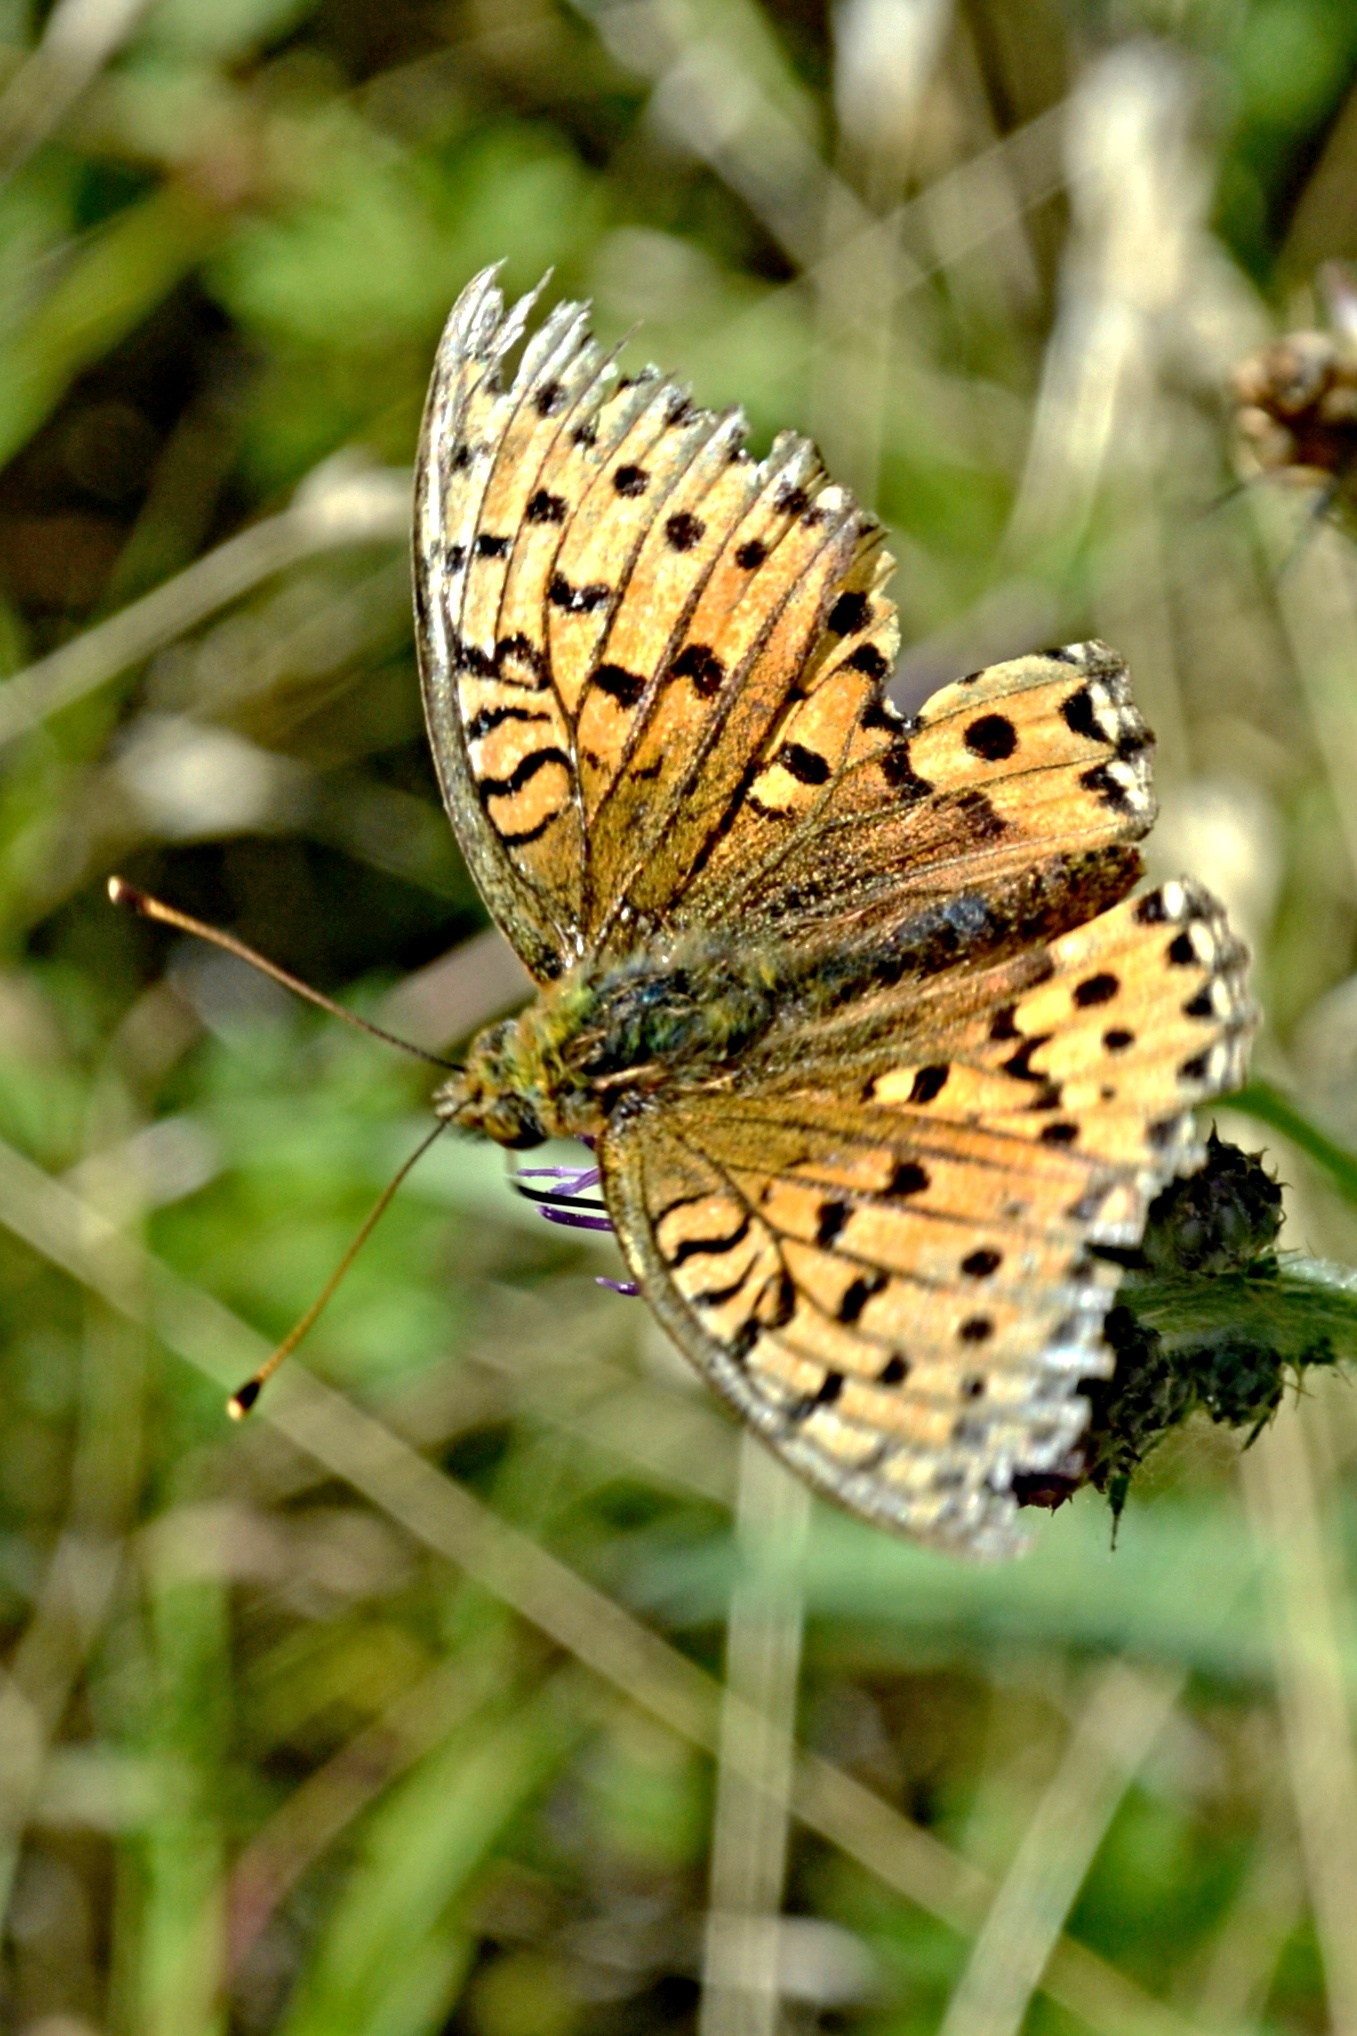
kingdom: Animalia
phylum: Arthropoda
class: Insecta
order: Lepidoptera
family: Nymphalidae
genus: Speyeria
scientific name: Speyeria aglaja
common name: Dark green fritillary
